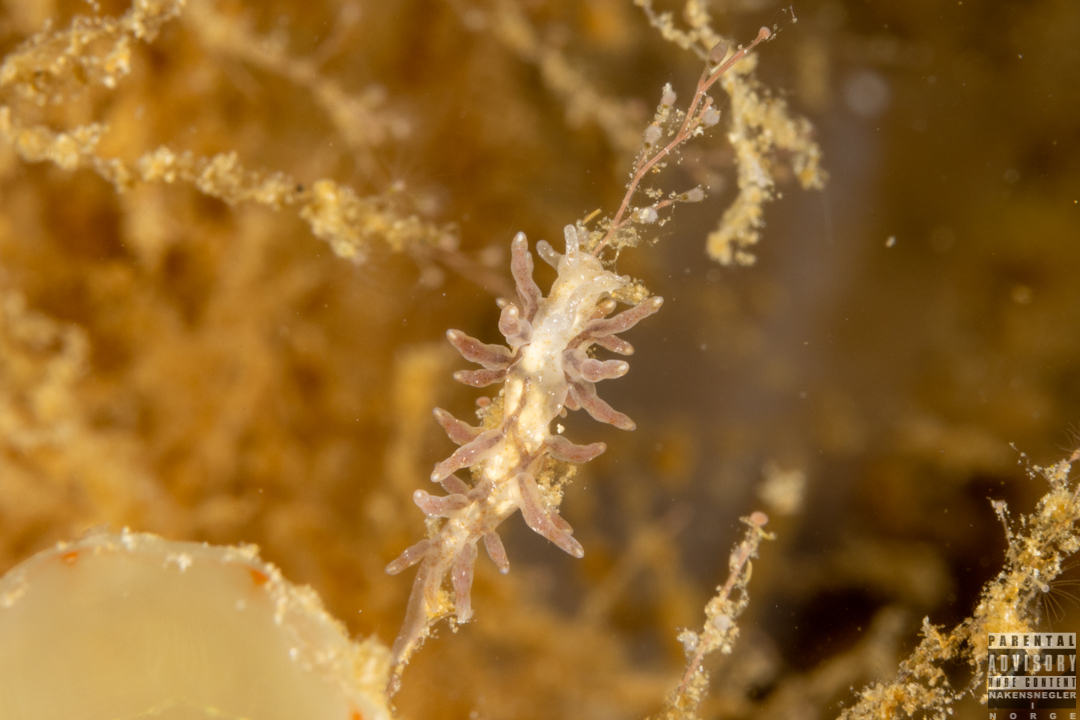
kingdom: Animalia
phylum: Mollusca
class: Gastropoda
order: Nudibranchia
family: Eubranchidae
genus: Eubranchus
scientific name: Eubranchus rupium
